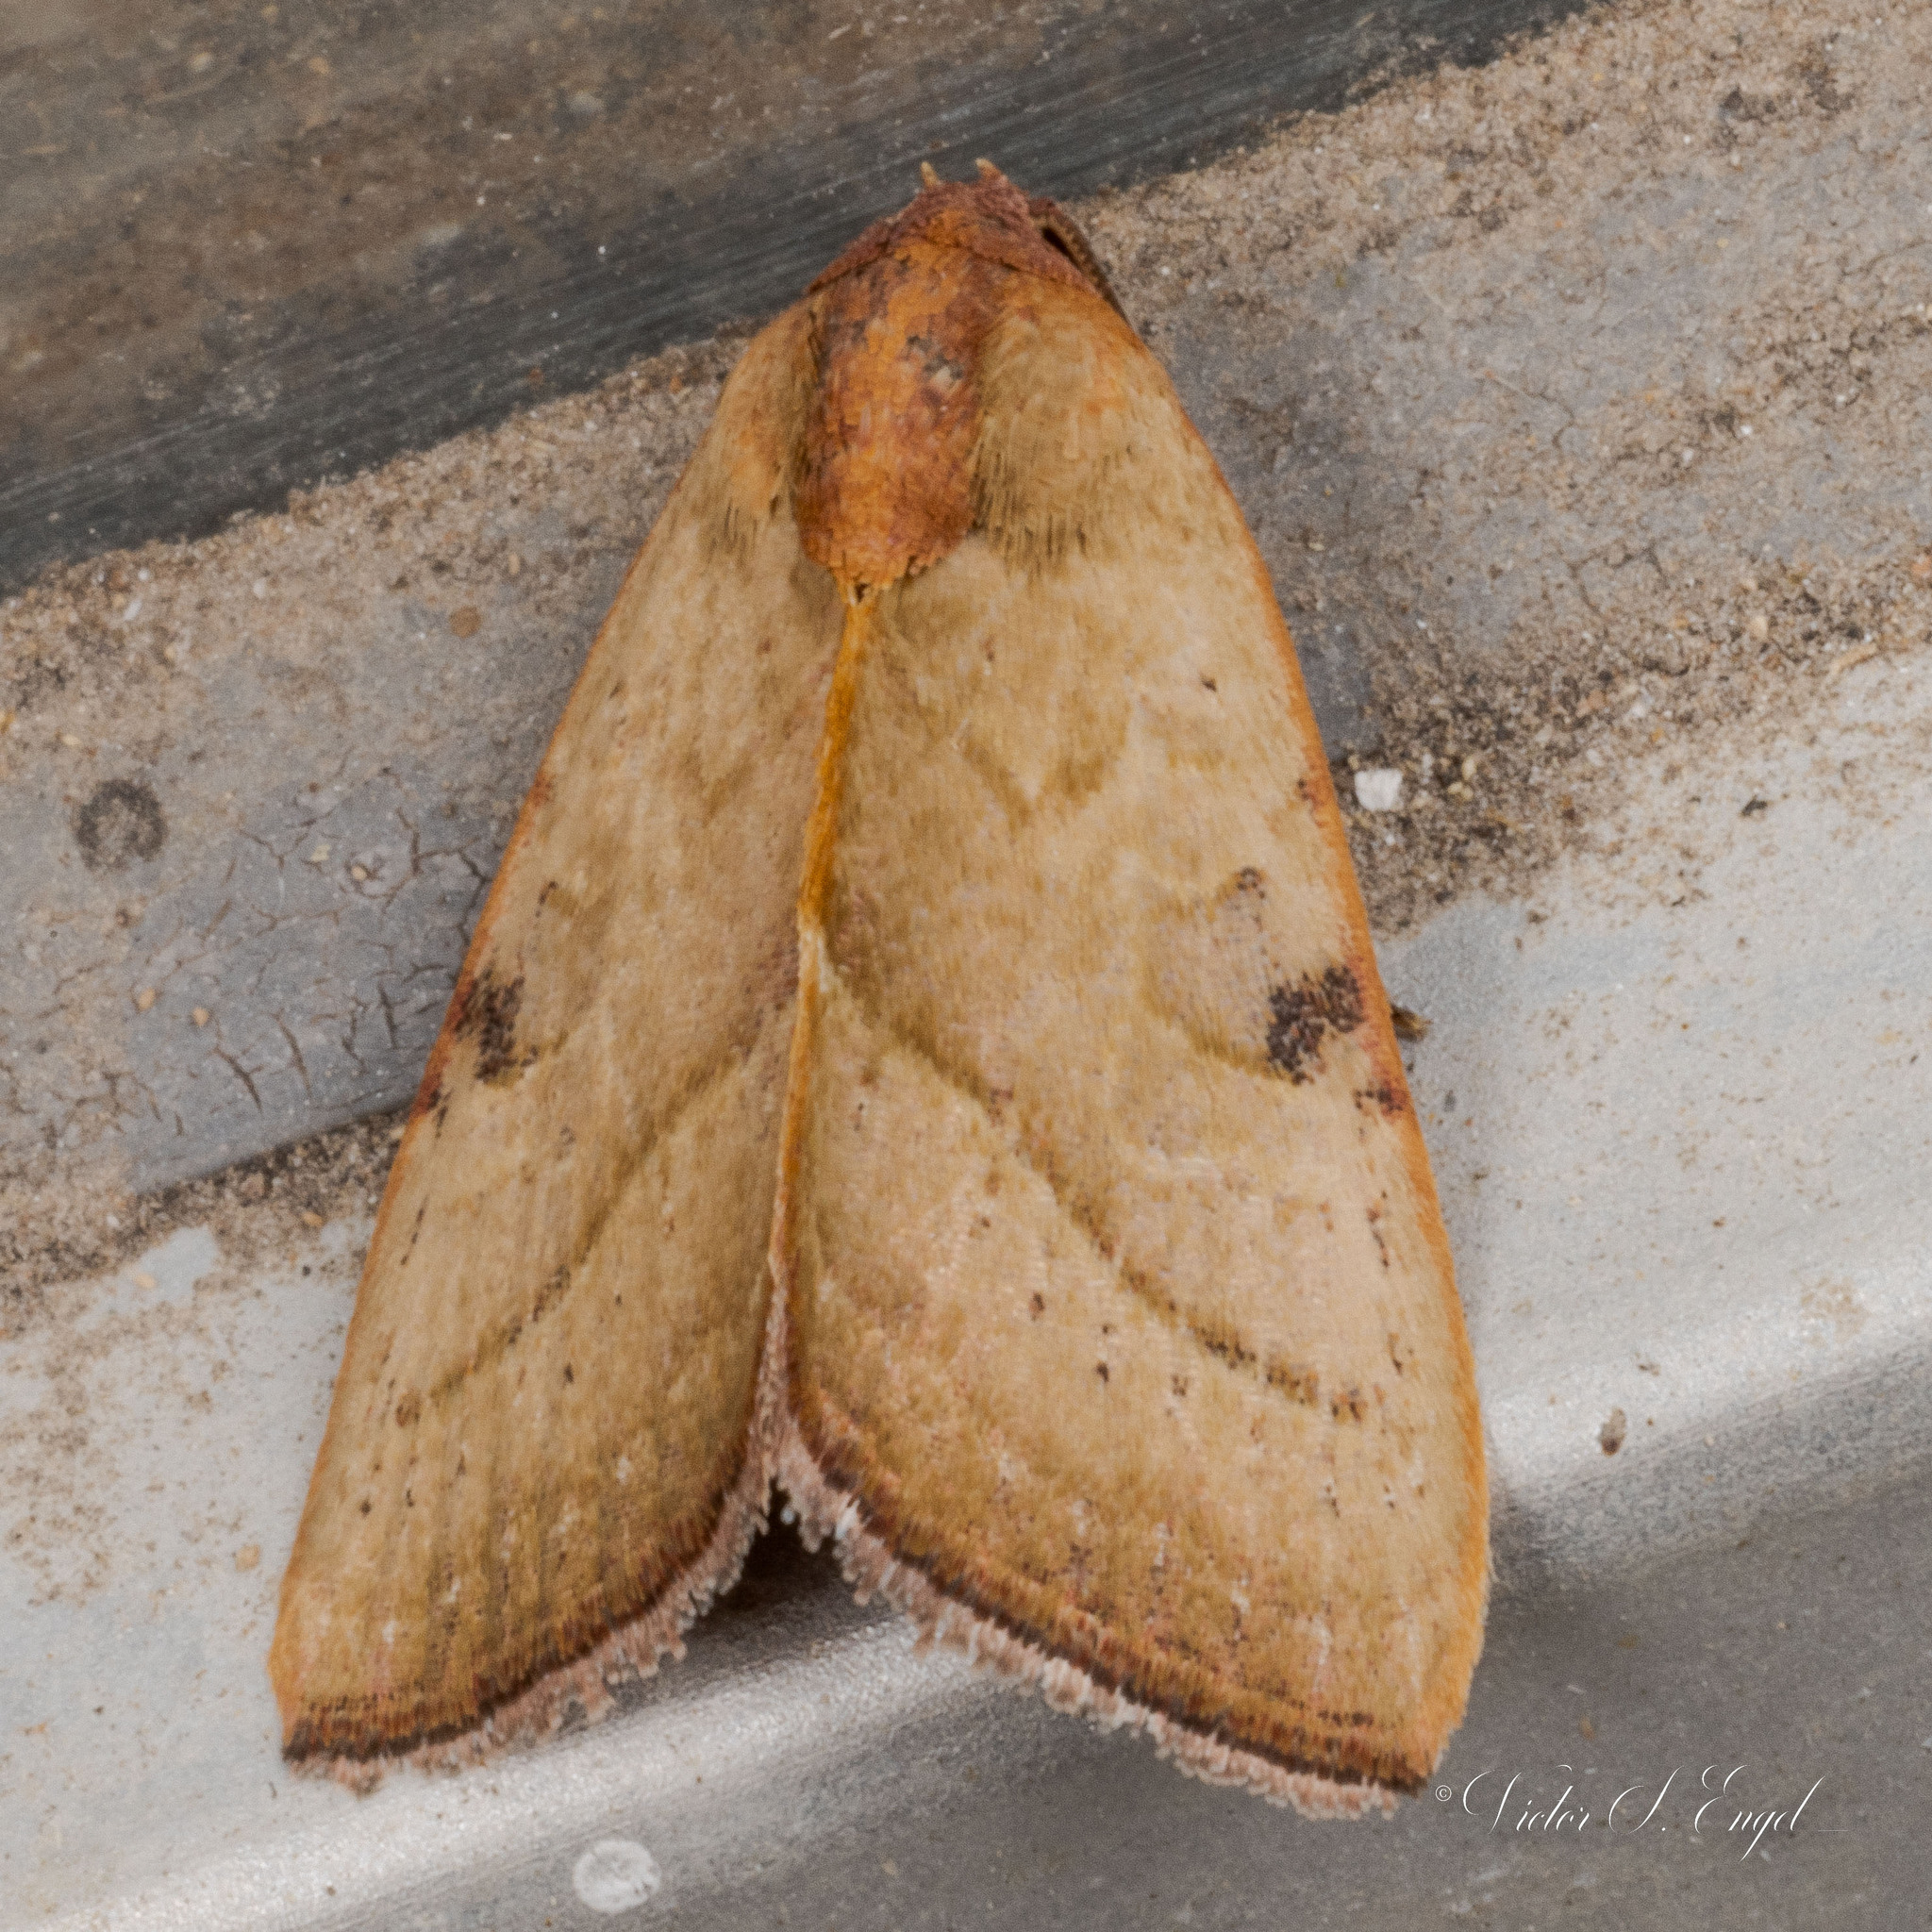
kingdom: Animalia
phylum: Arthropoda
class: Insecta
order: Lepidoptera
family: Noctuidae
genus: Galgula
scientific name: Galgula partita
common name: Wedgeling
